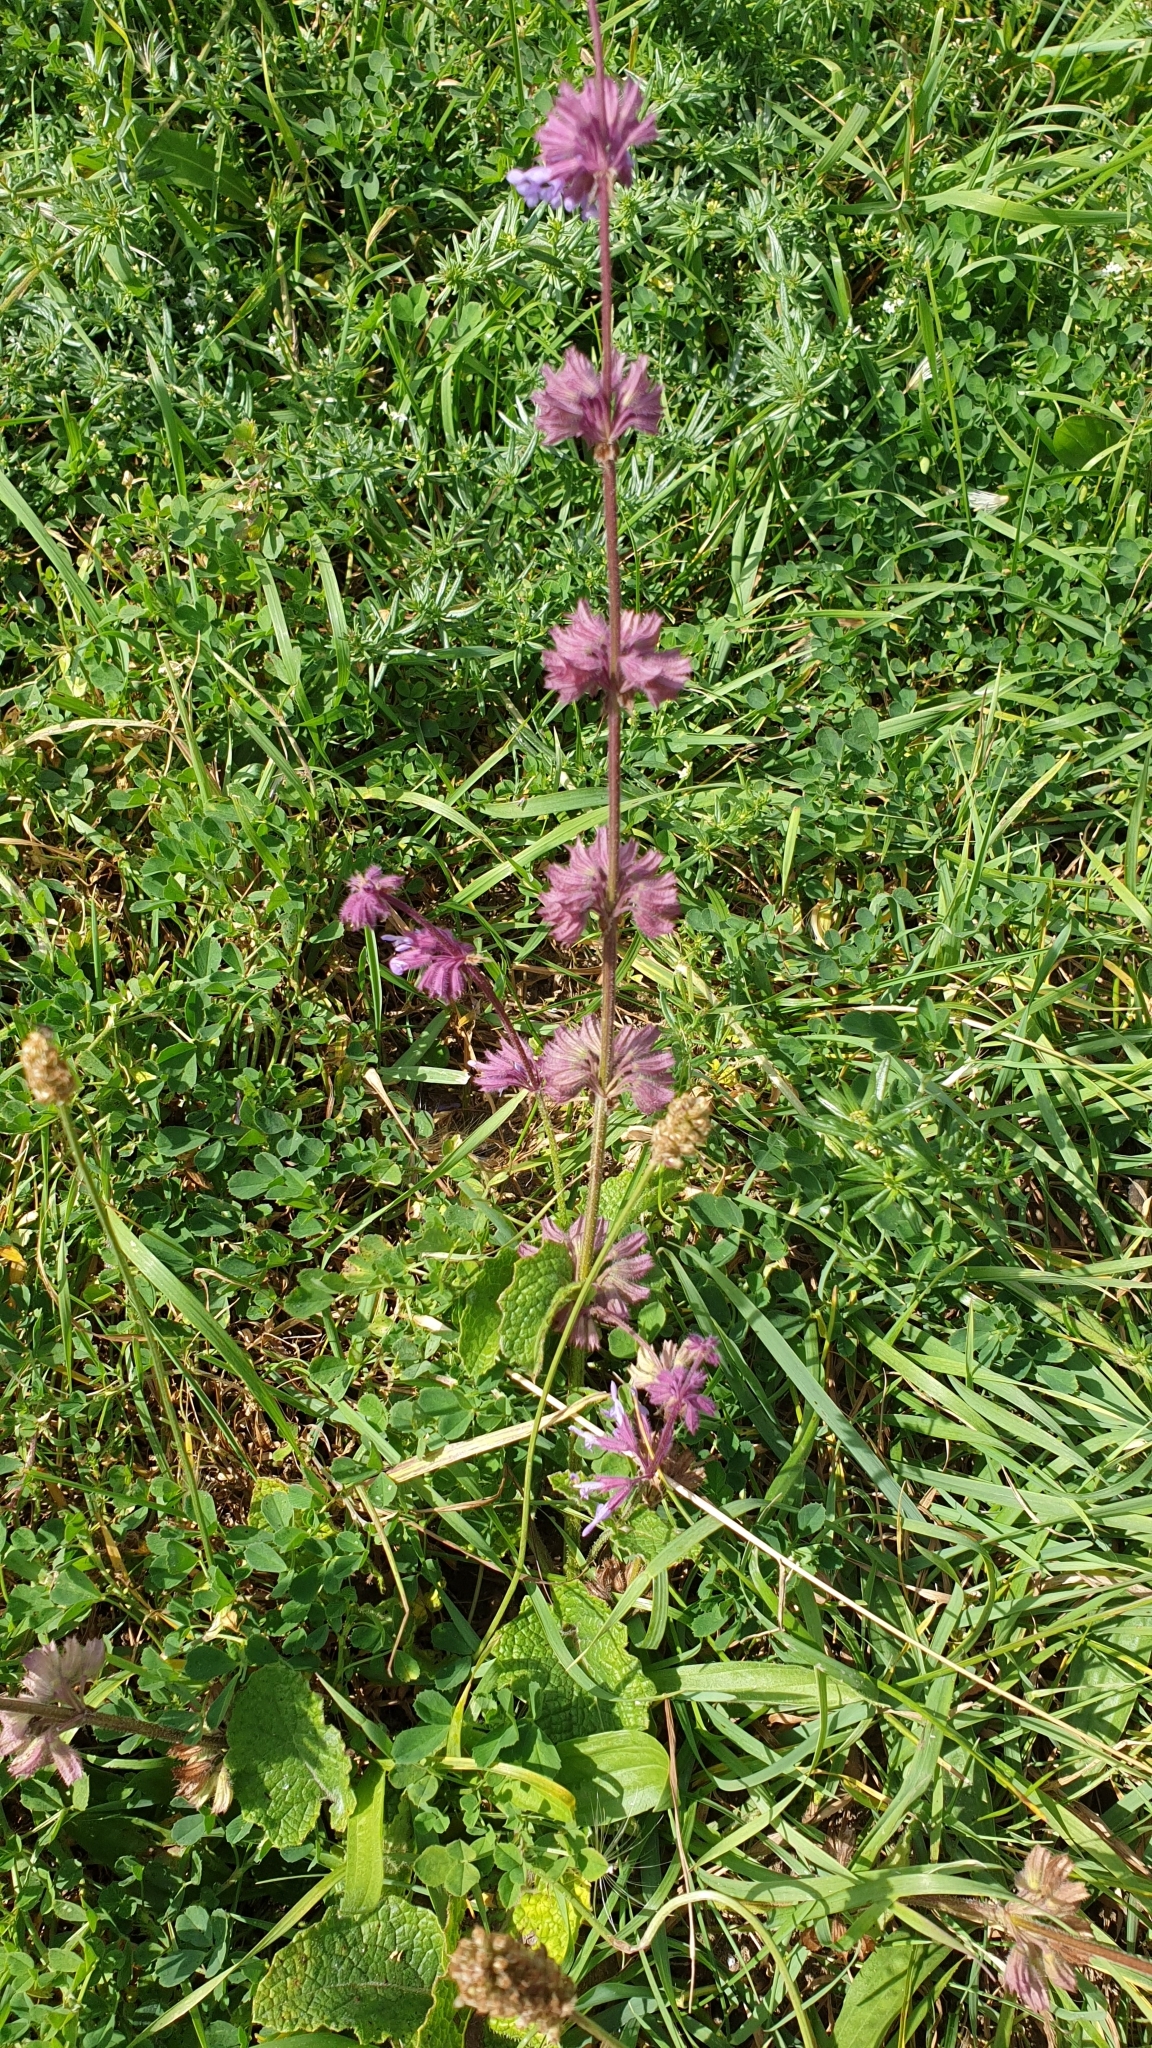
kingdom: Plantae
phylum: Tracheophyta
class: Magnoliopsida
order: Lamiales
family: Lamiaceae
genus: Salvia
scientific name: Salvia verticillata
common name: Whorled clary
